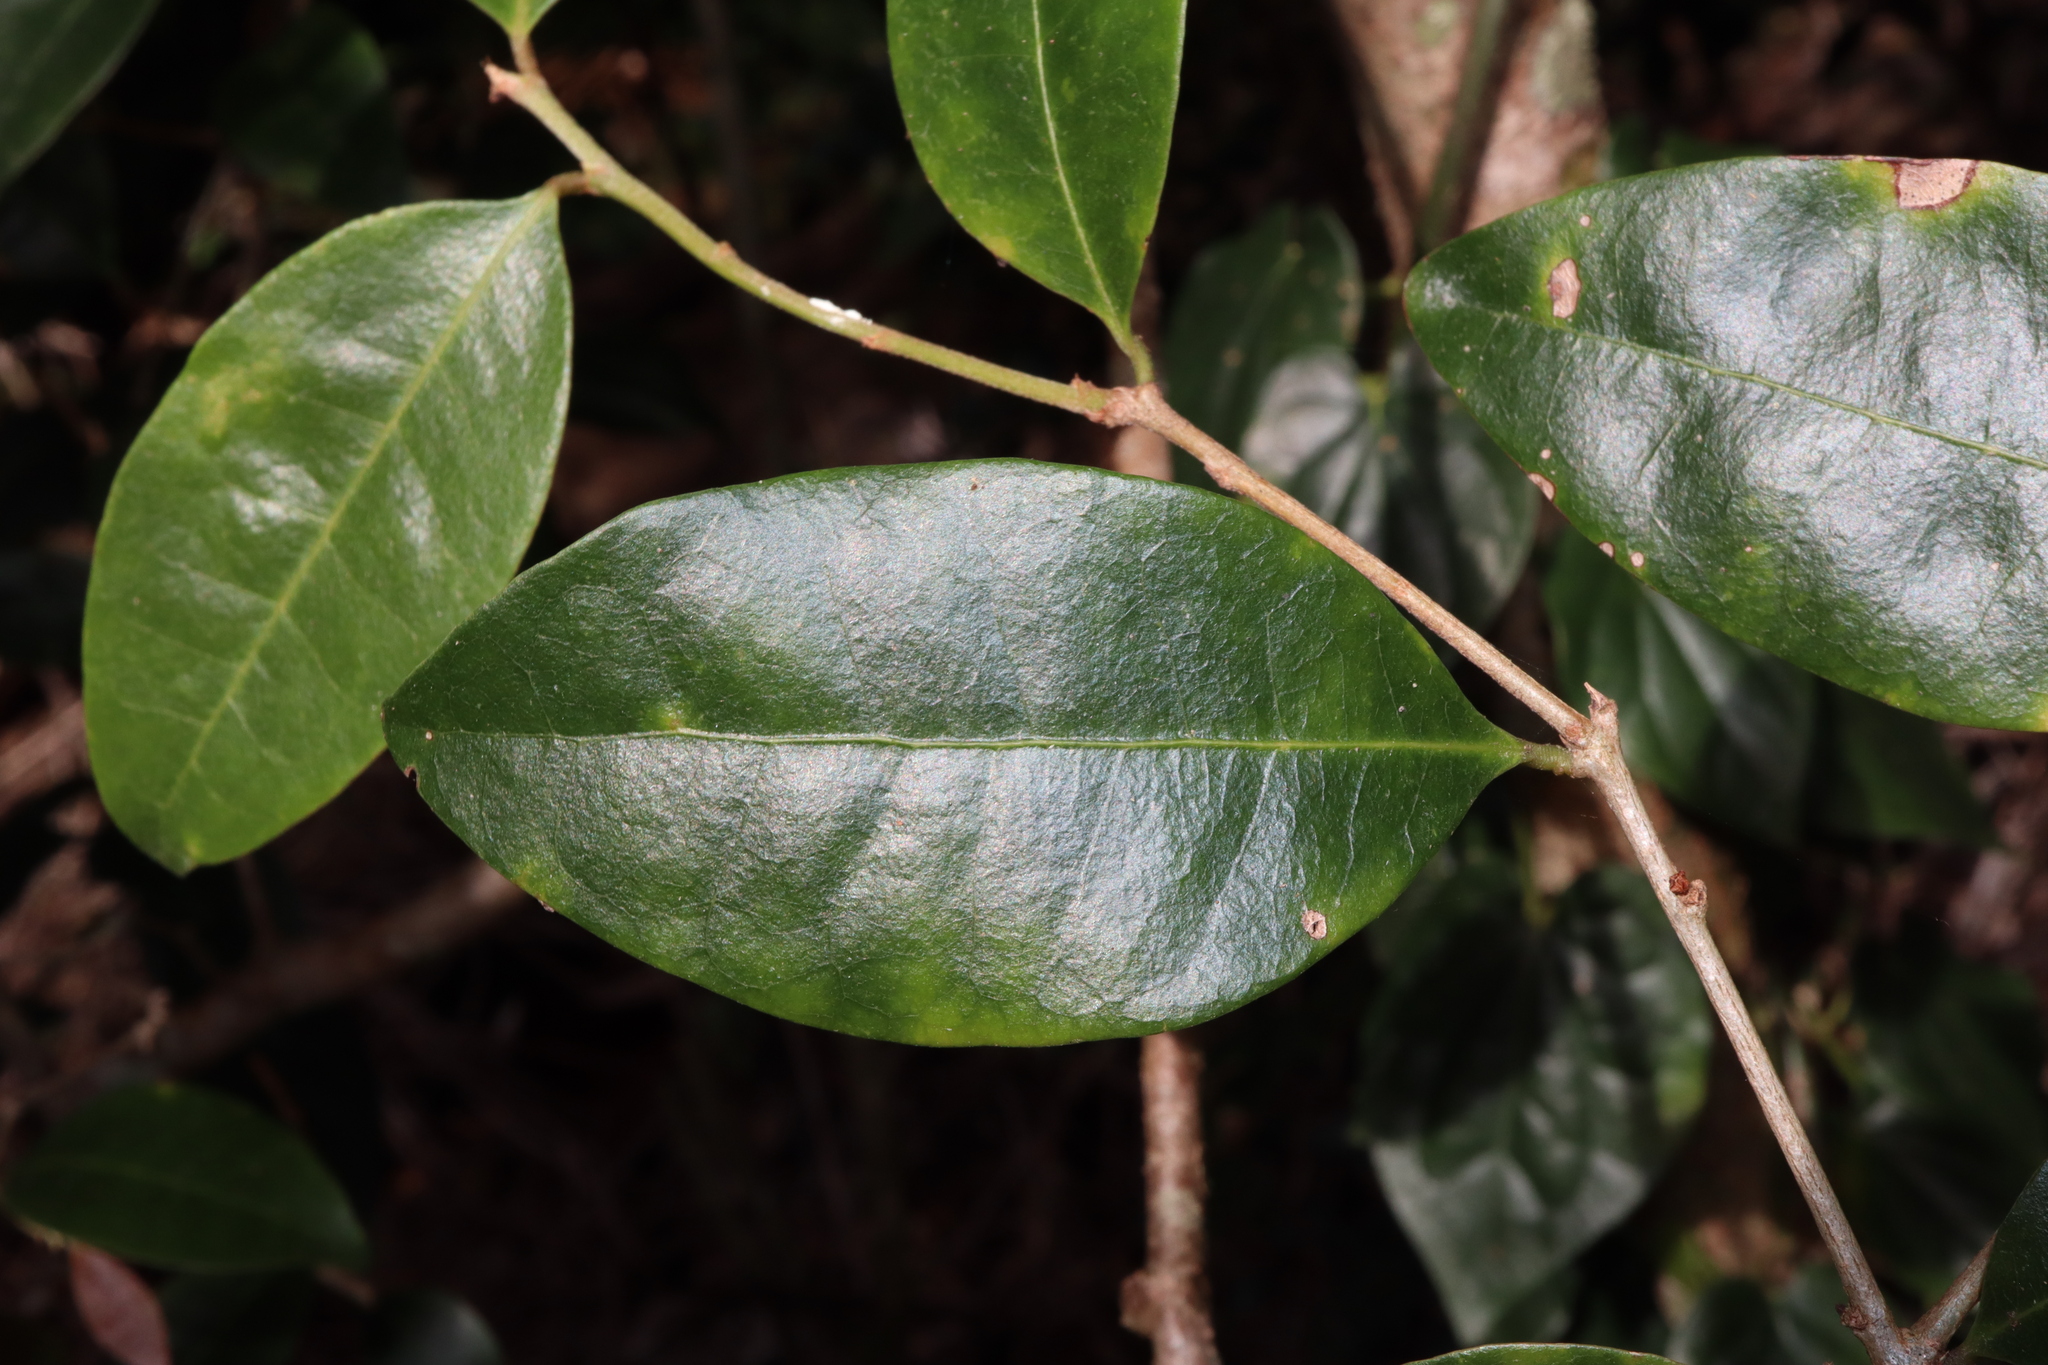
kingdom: Plantae
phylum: Tracheophyta
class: Magnoliopsida
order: Malpighiales
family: Phyllanthaceae
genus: Cleistanthus
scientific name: Cleistanthus cunninghamii
